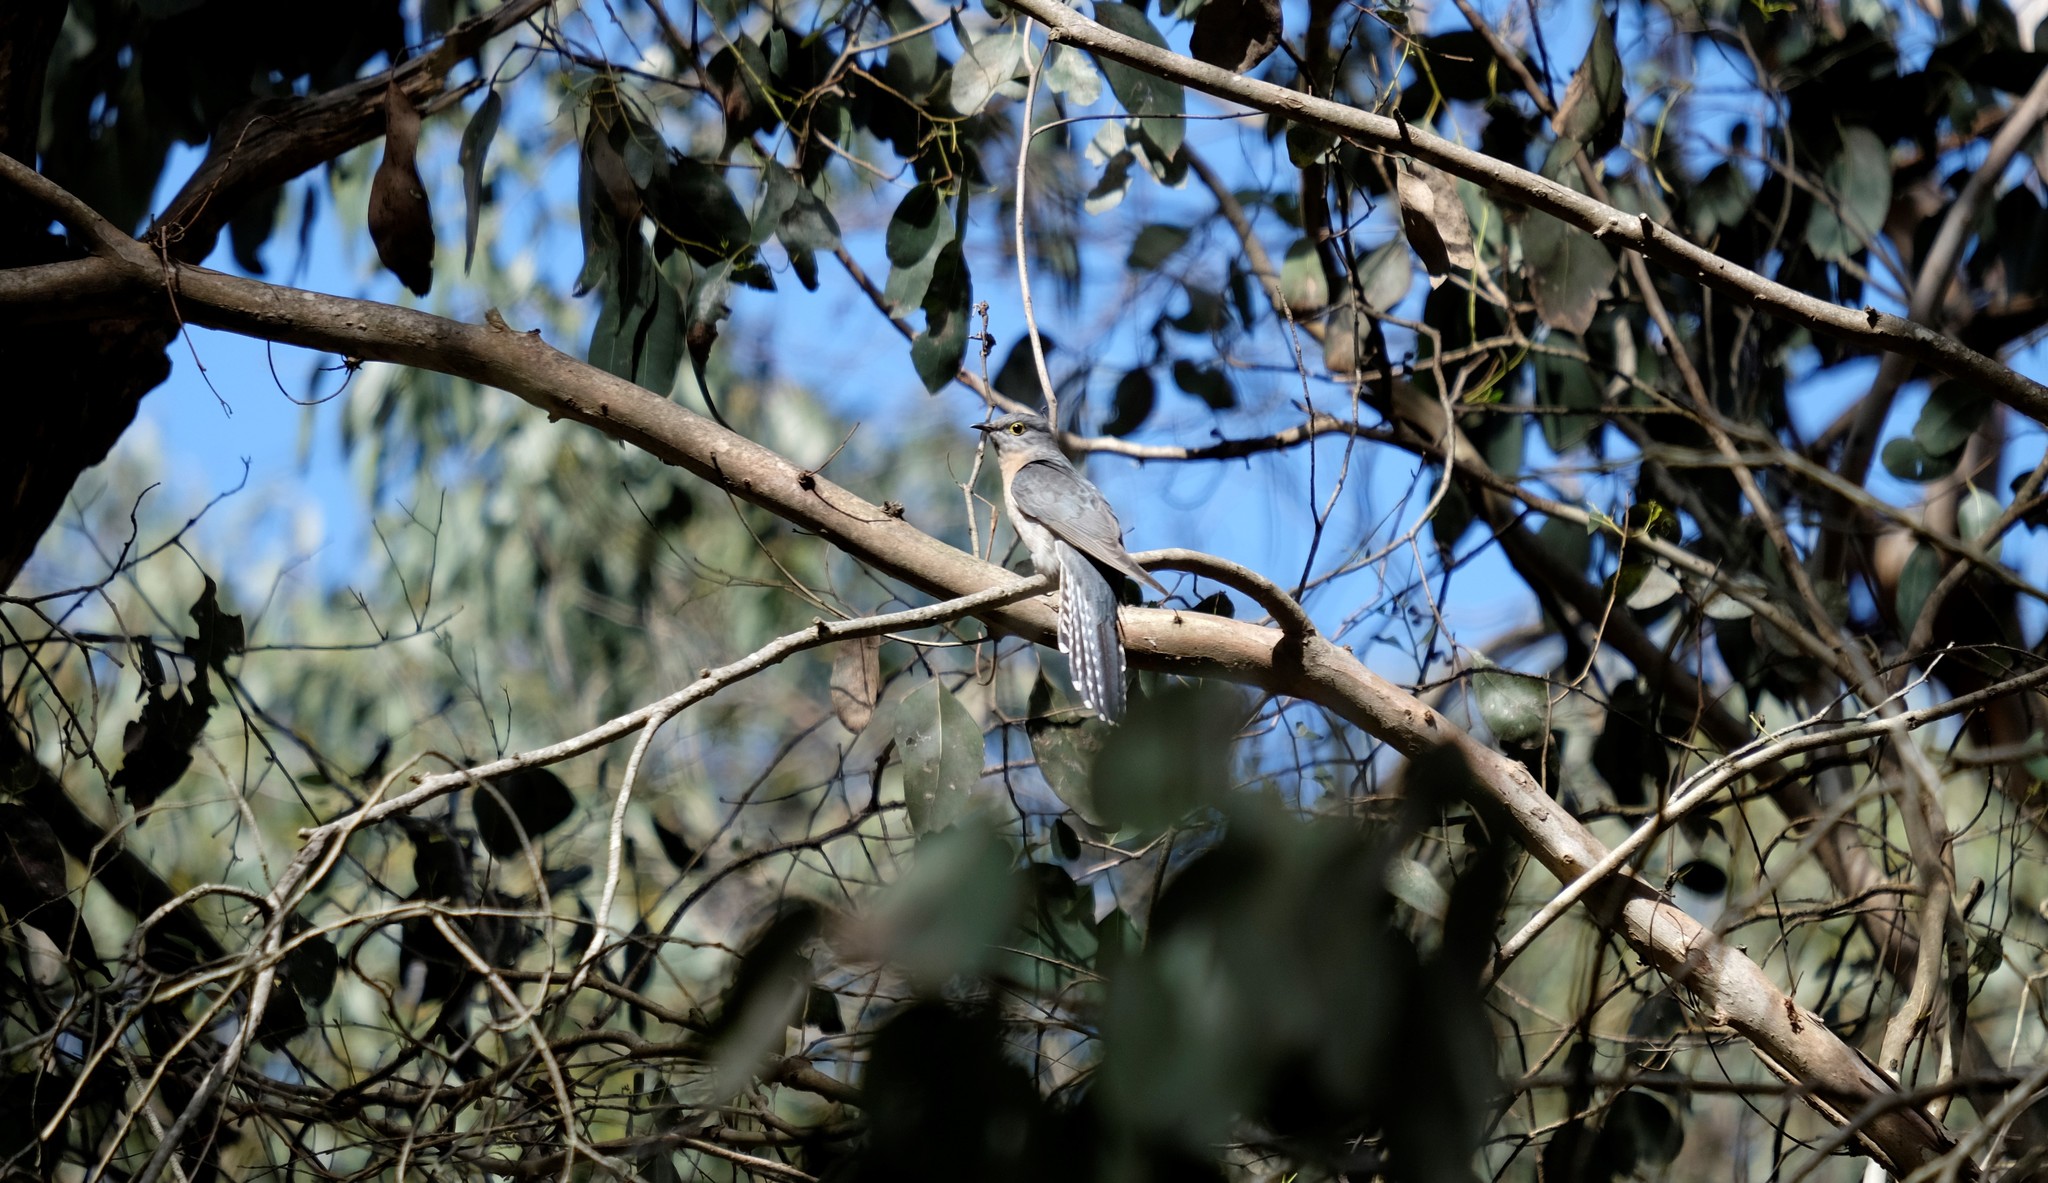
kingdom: Animalia
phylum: Chordata
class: Aves
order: Cuculiformes
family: Cuculidae
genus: Cacomantis
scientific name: Cacomantis flabelliformis
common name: Fan-tailed cuckoo
